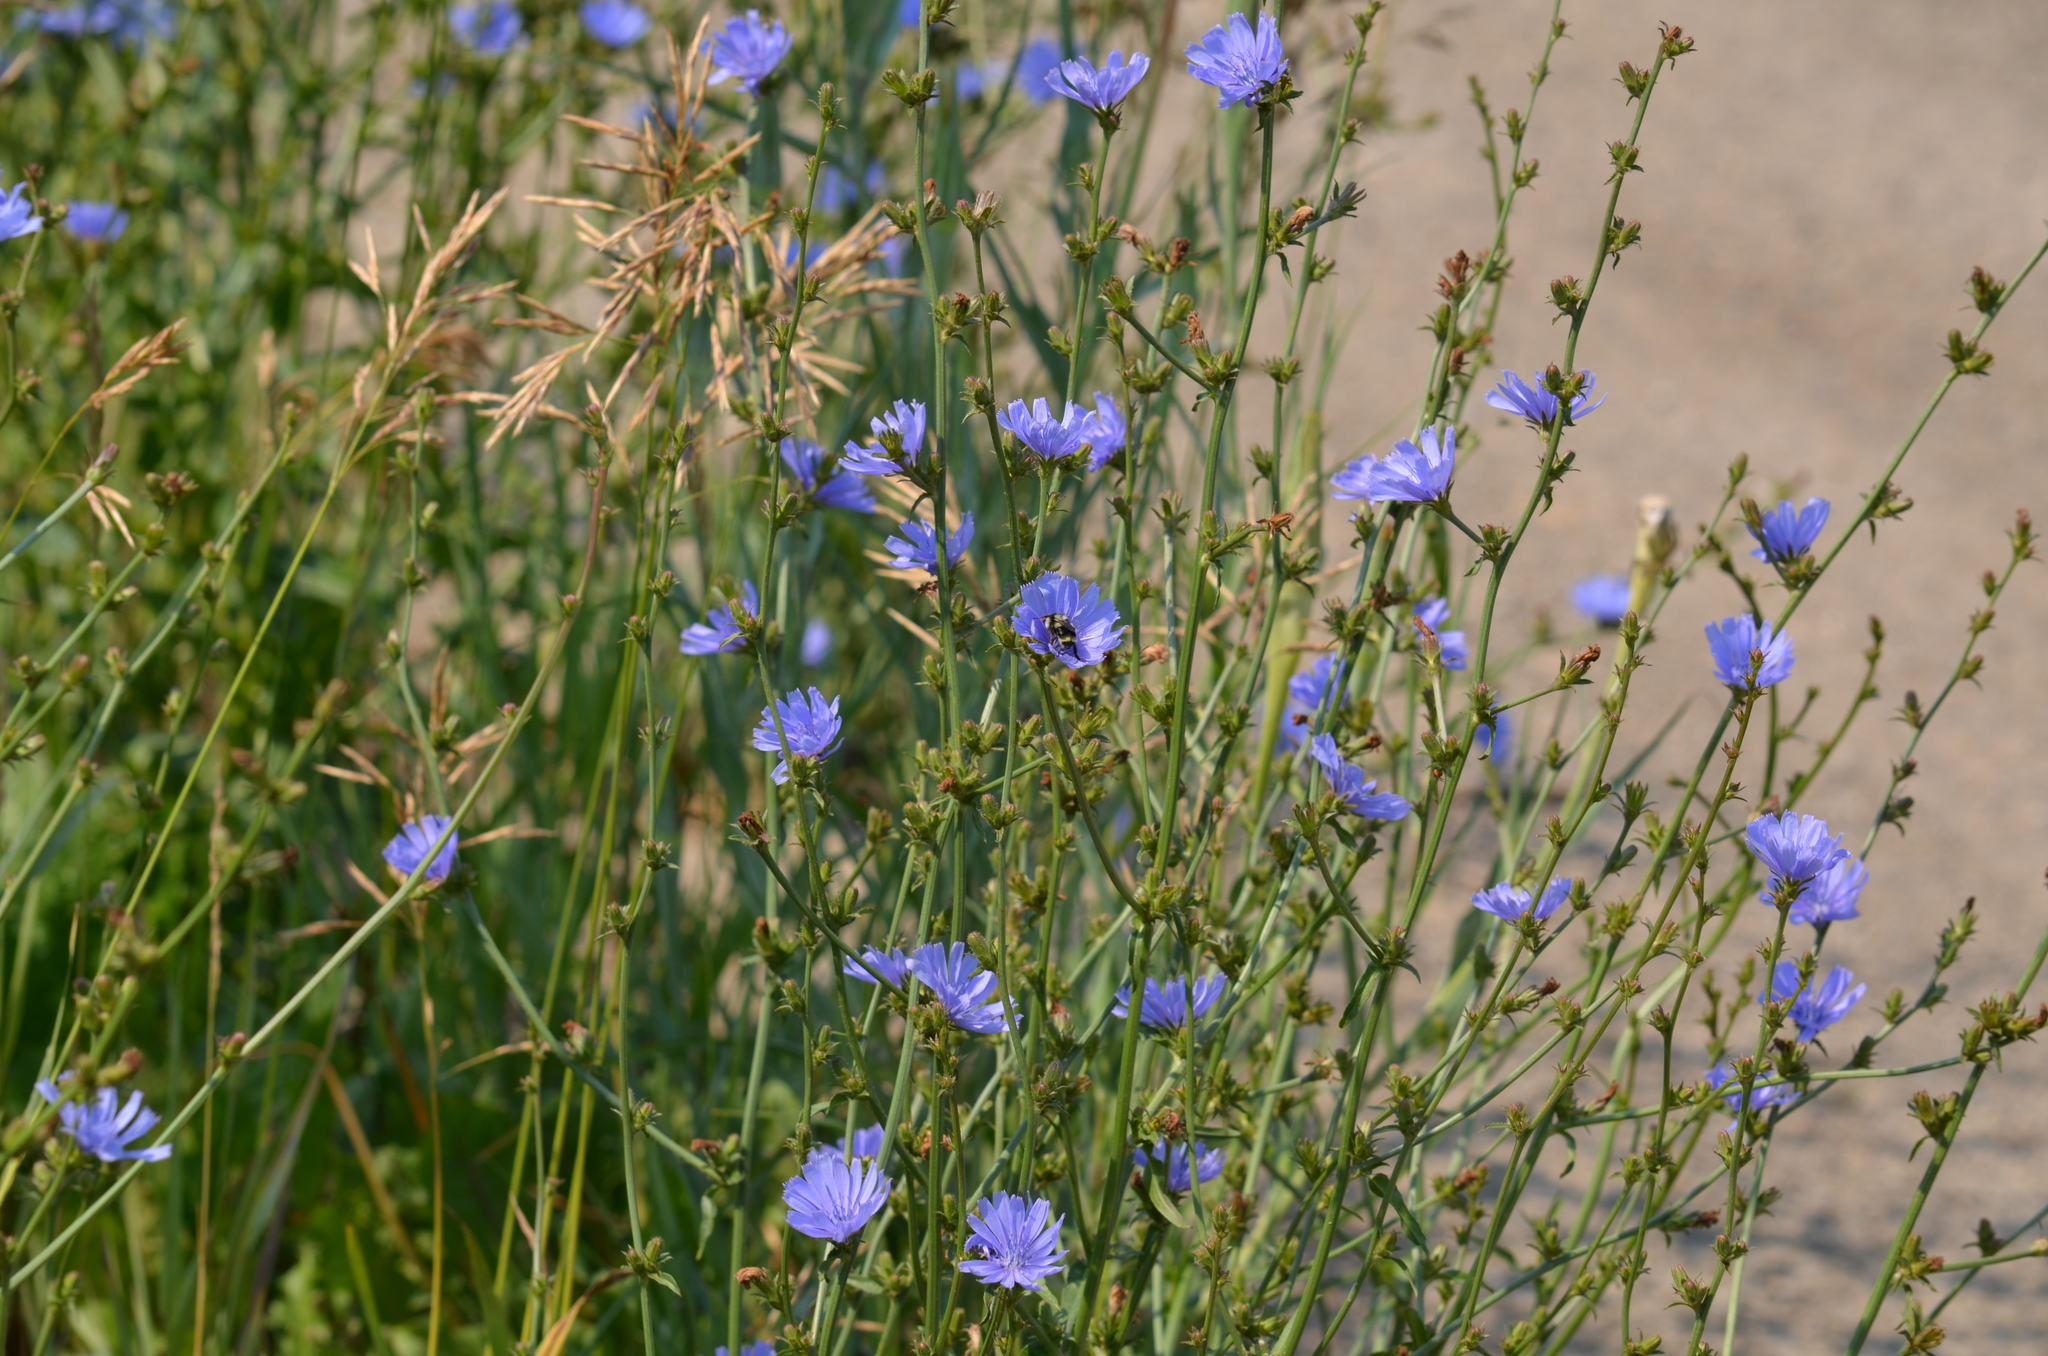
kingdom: Plantae
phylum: Tracheophyta
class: Magnoliopsida
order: Asterales
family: Asteraceae
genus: Cichorium
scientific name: Cichorium intybus
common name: Chicory
